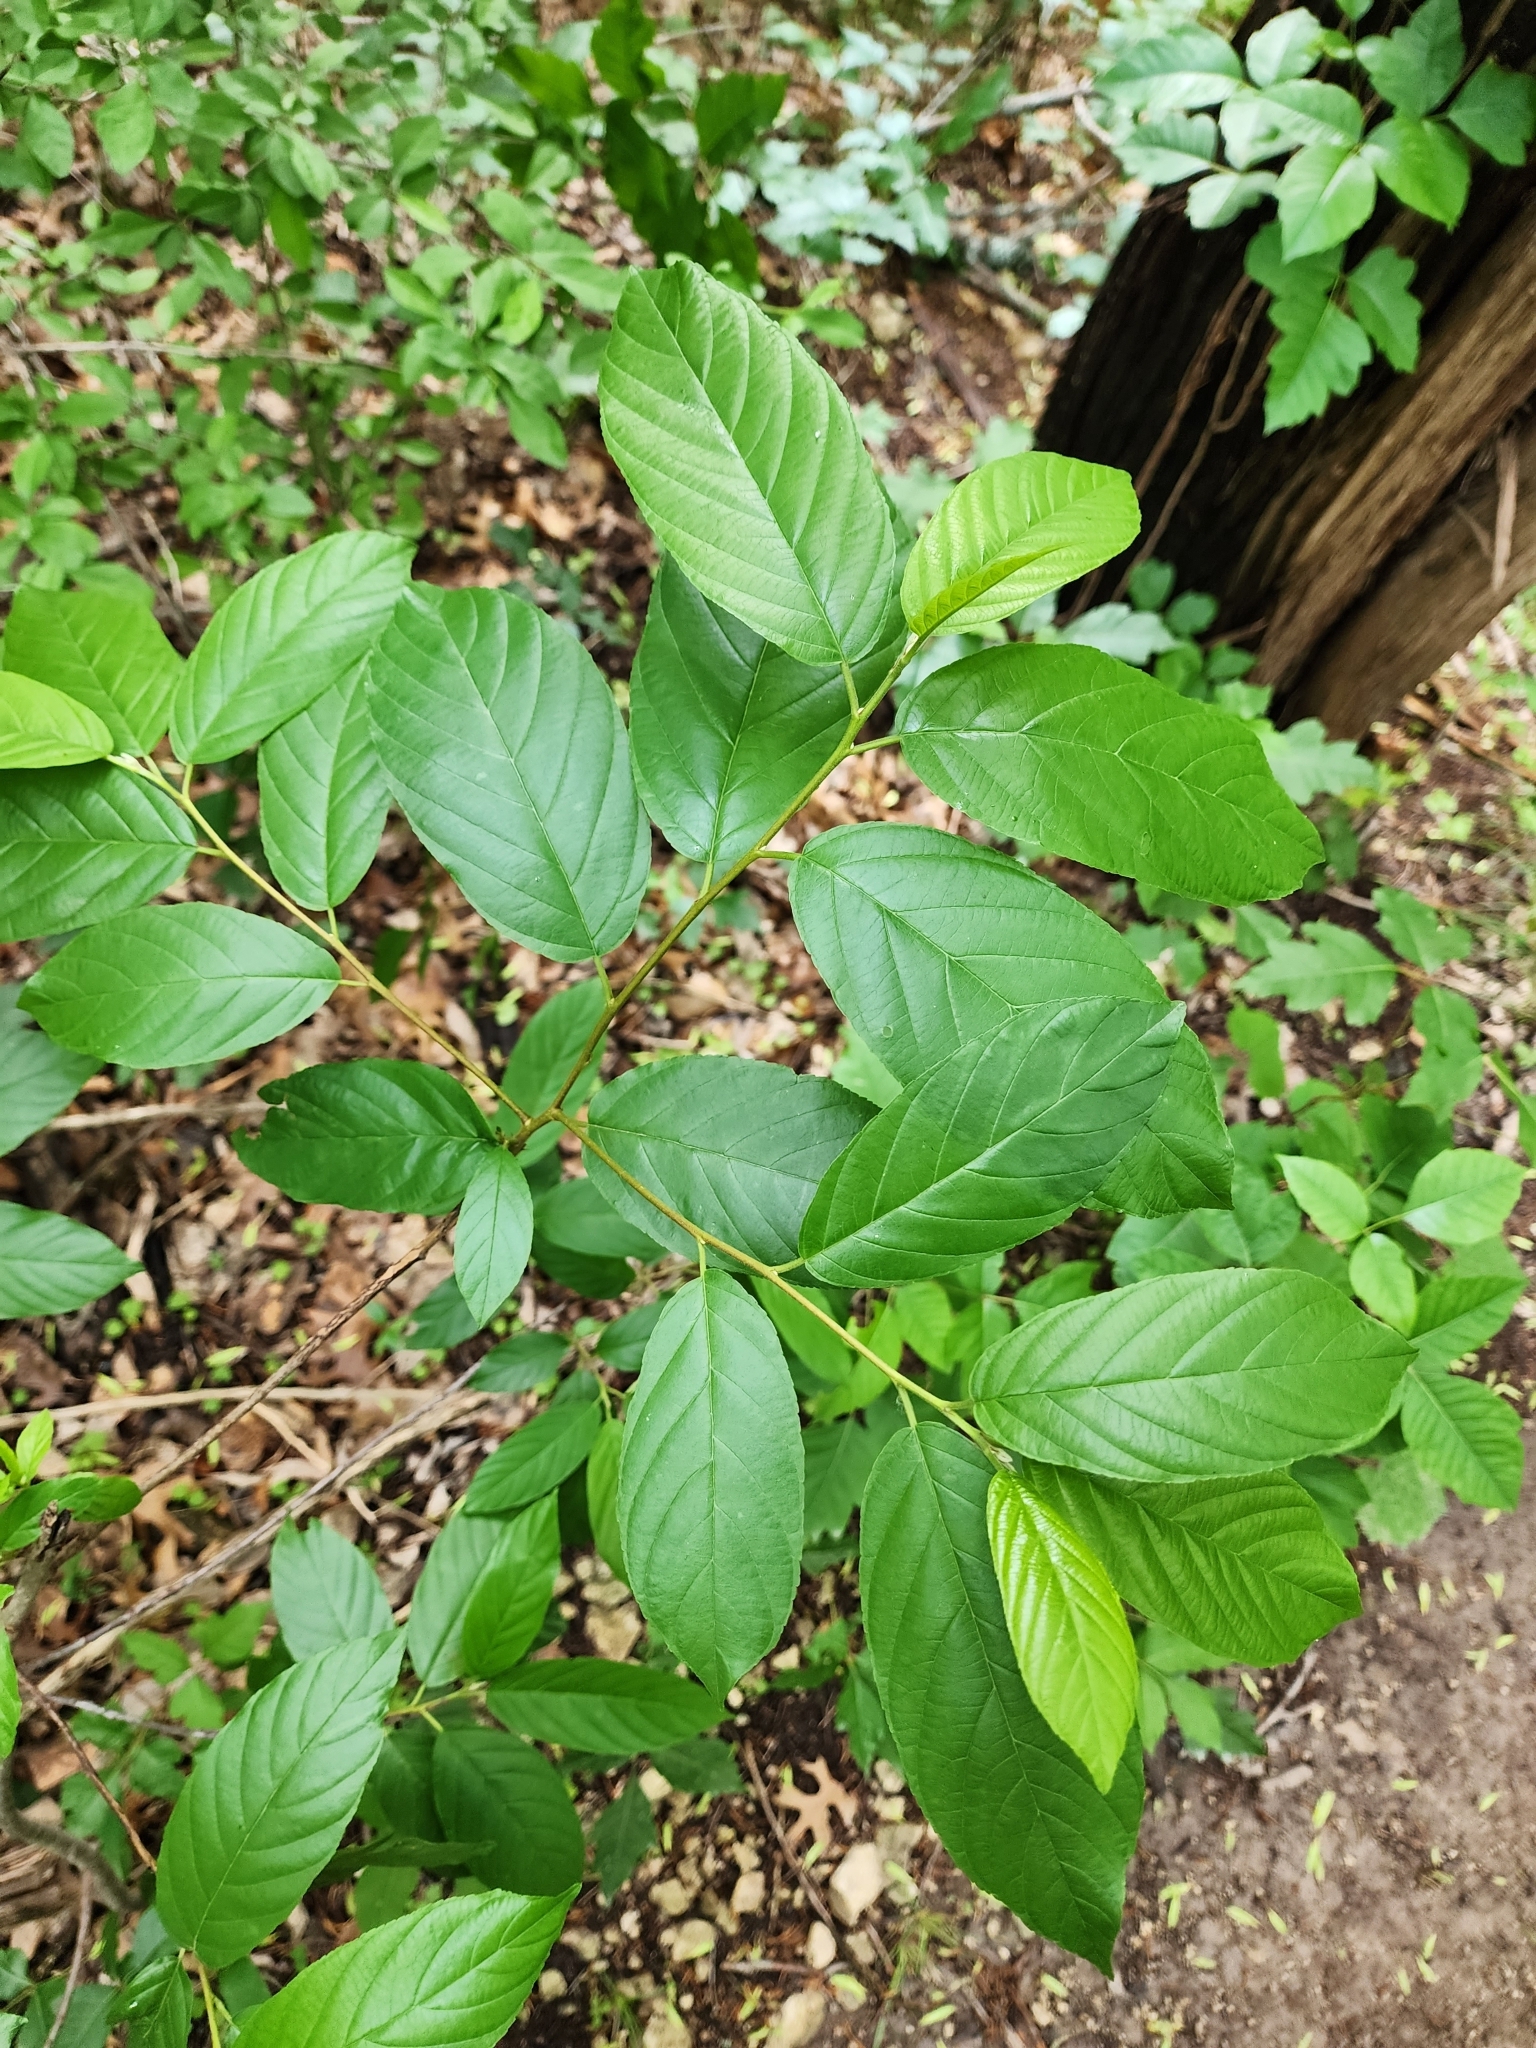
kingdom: Plantae
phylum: Tracheophyta
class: Magnoliopsida
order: Rosales
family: Rhamnaceae
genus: Frangula
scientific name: Frangula caroliniana
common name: Carolina buckthorn
